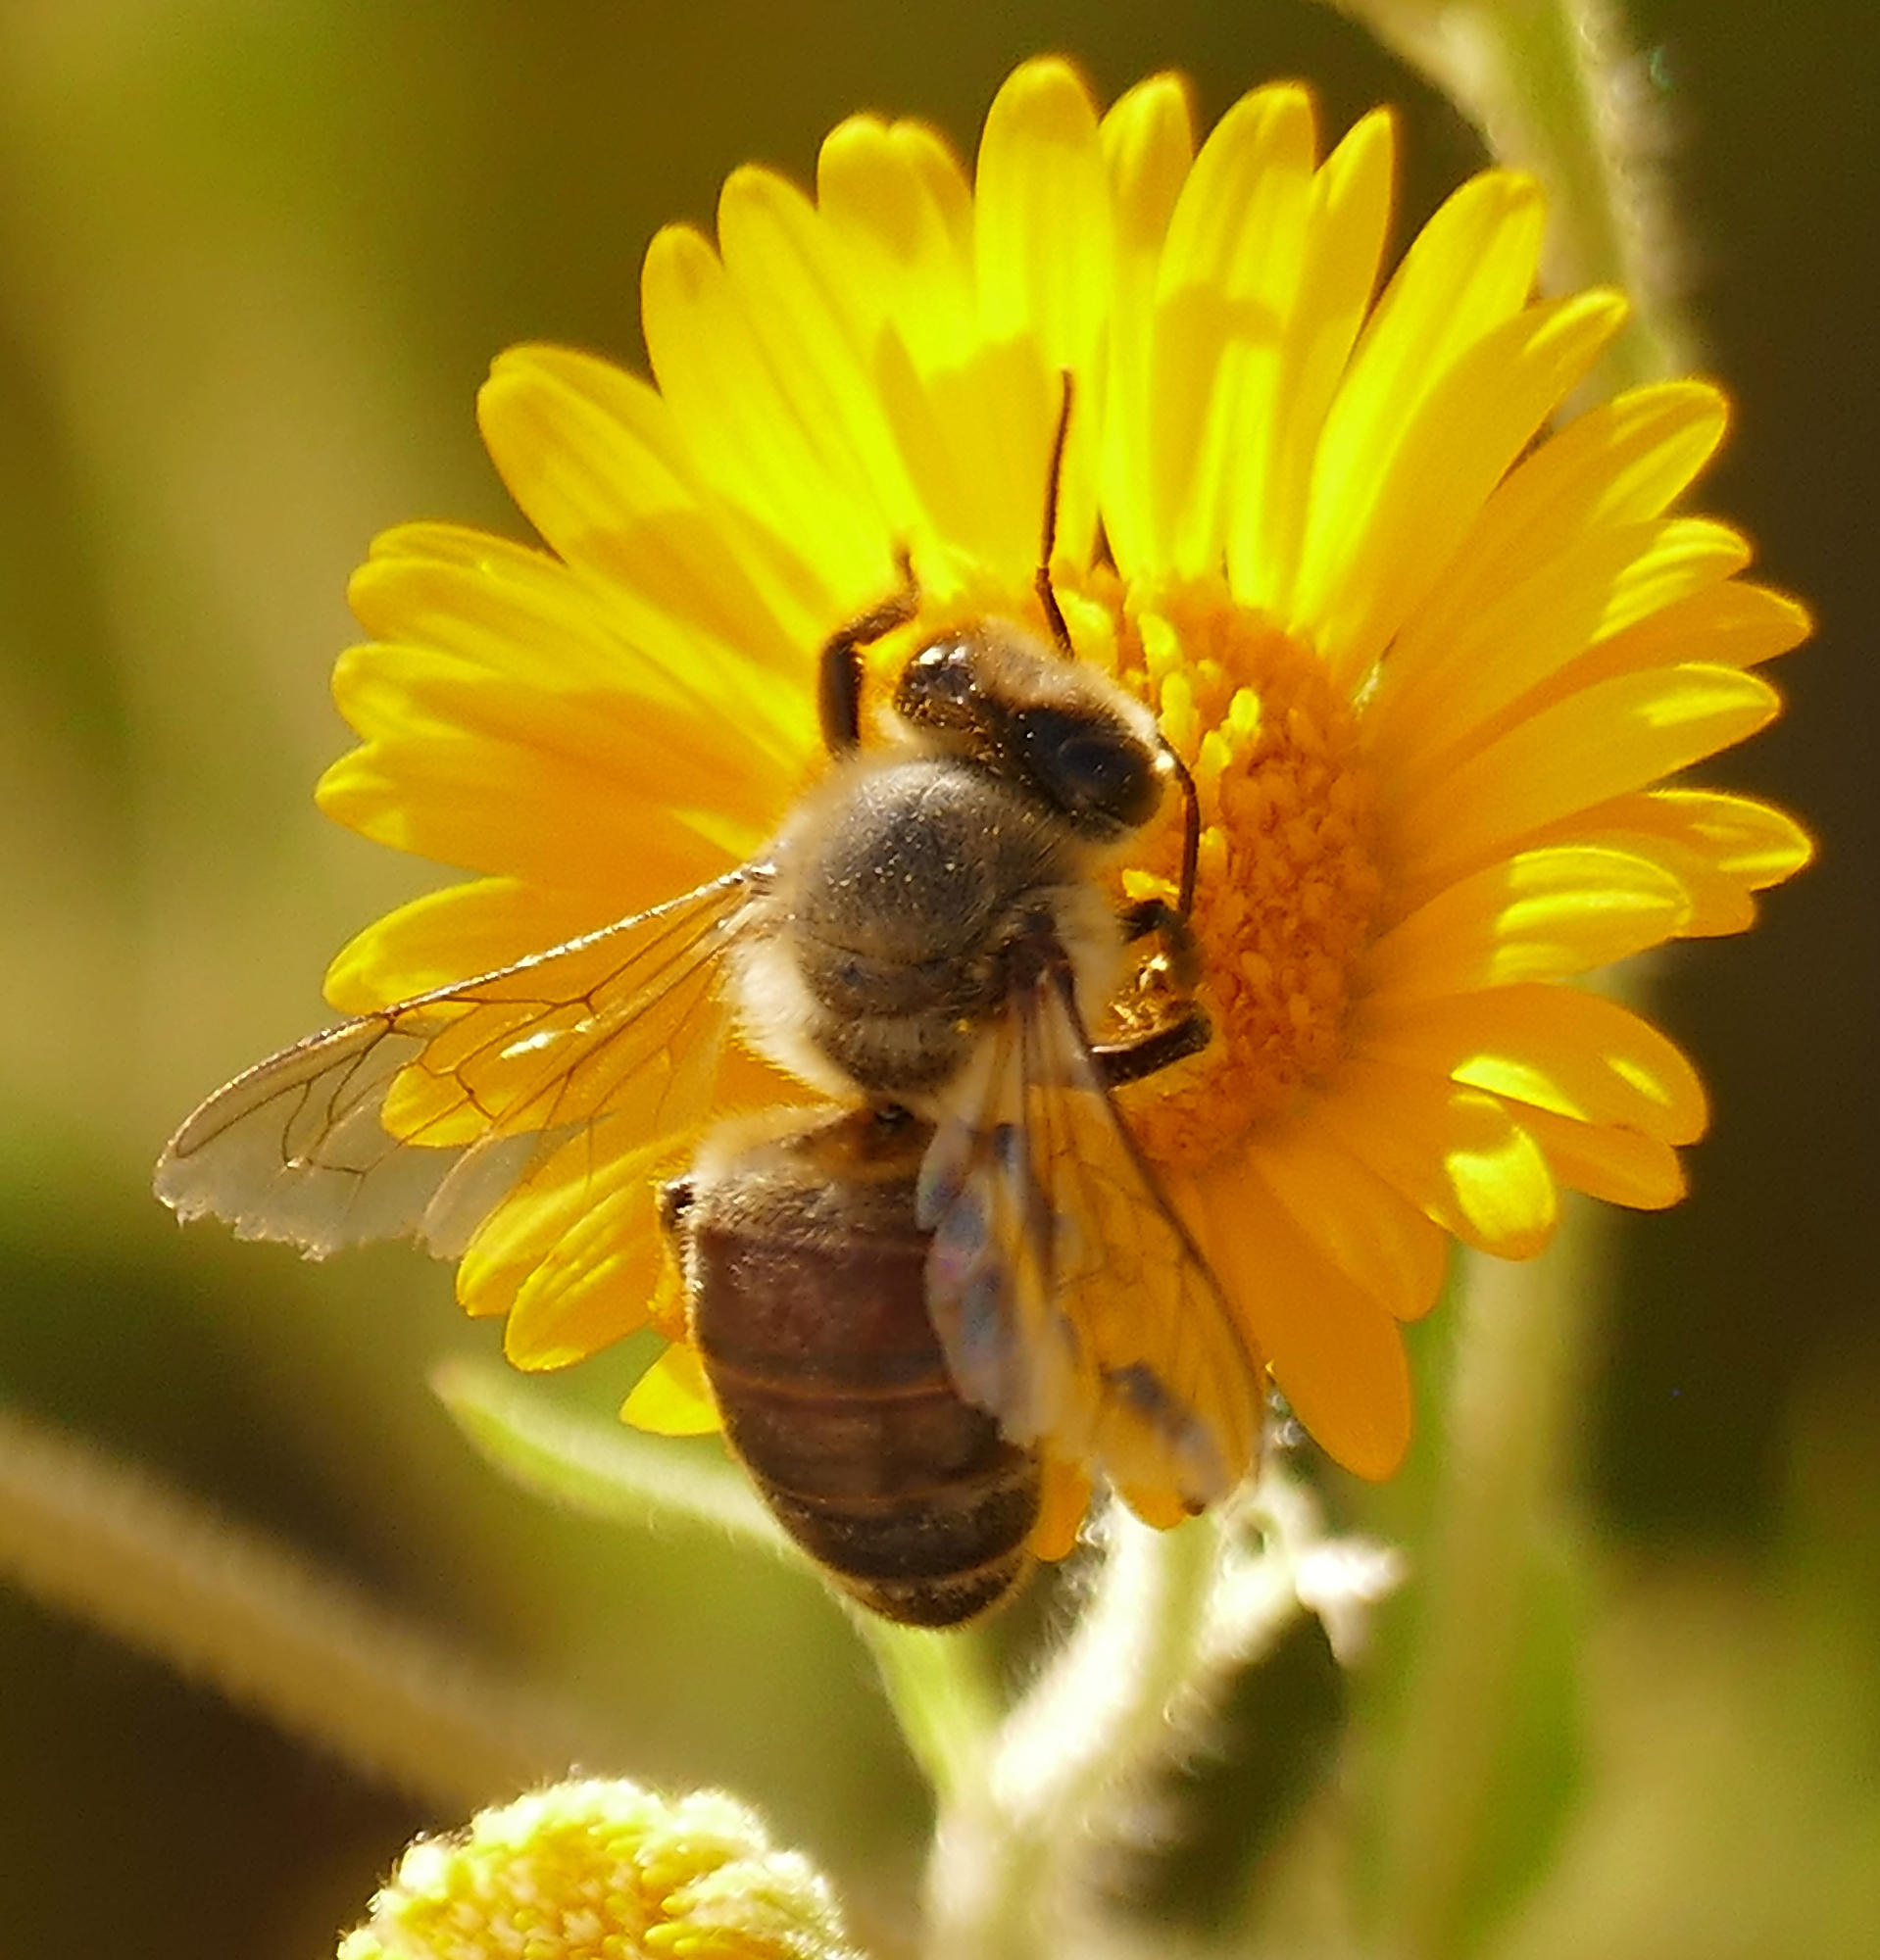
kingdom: Animalia
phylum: Arthropoda
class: Insecta
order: Hymenoptera
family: Apidae
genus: Apis
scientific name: Apis mellifera
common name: Honey bee
